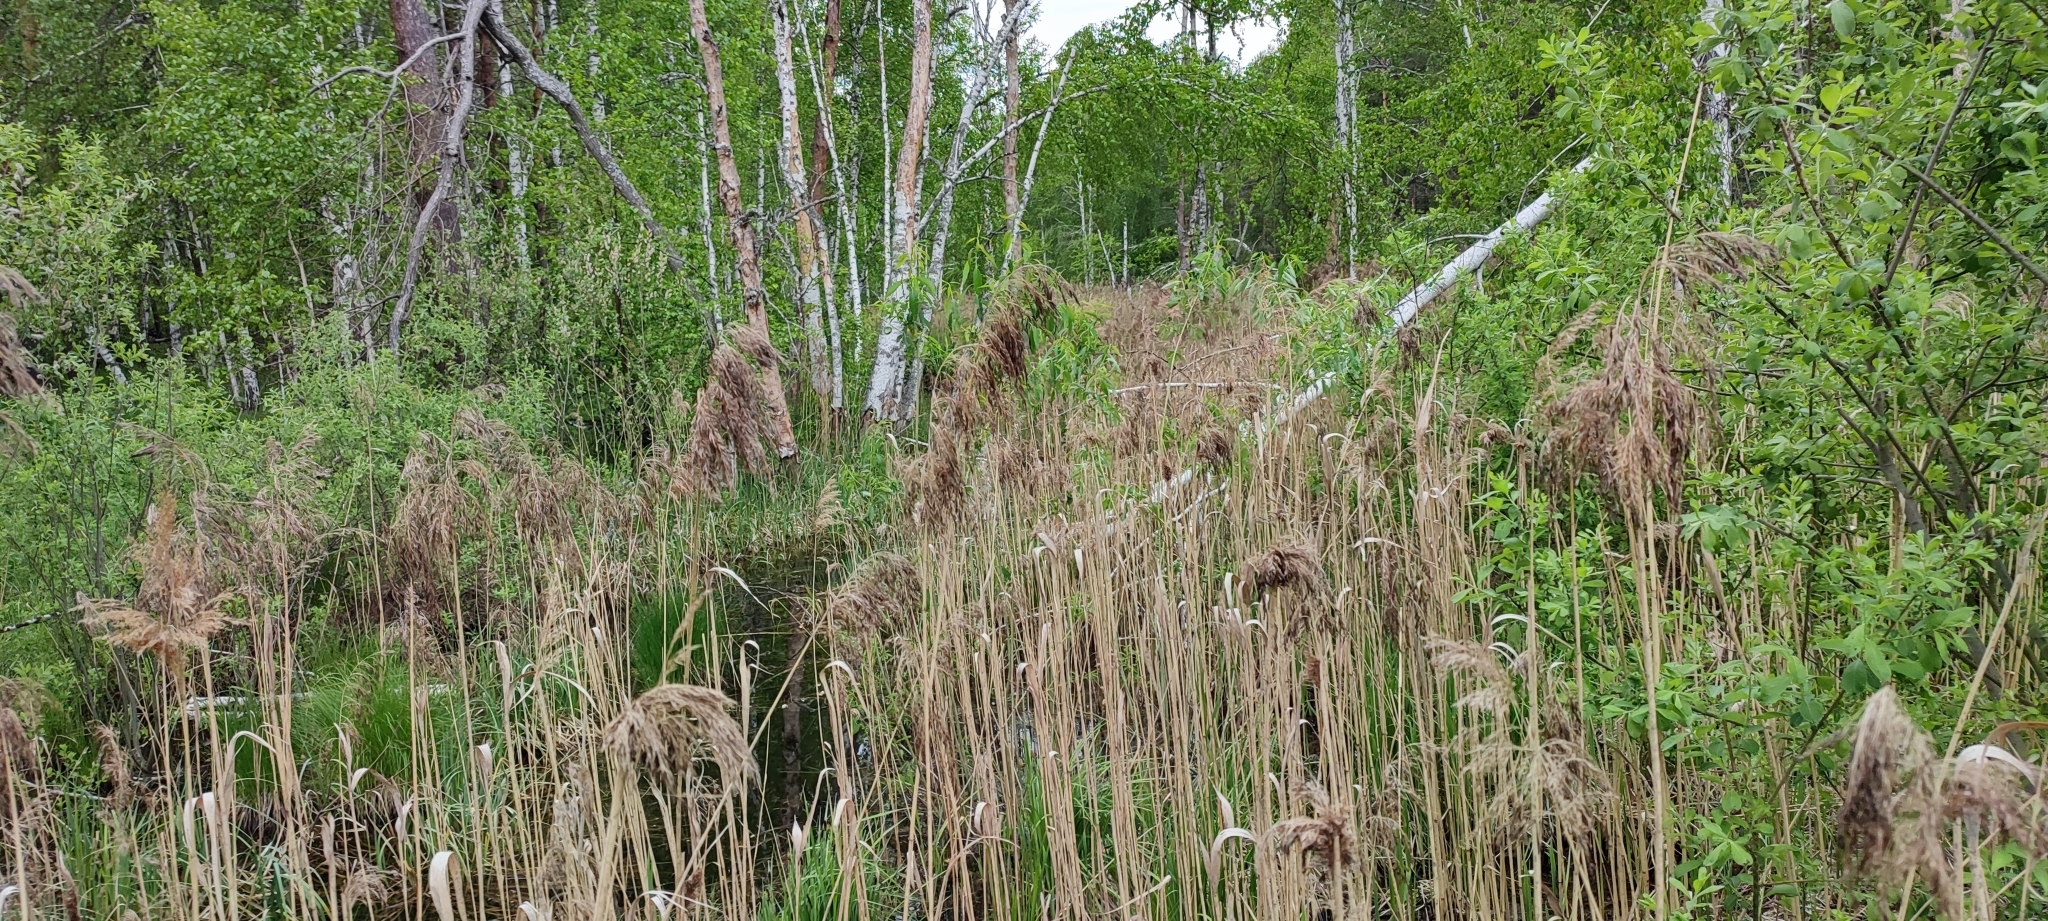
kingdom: Plantae
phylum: Tracheophyta
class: Liliopsida
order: Poales
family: Poaceae
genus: Phragmites
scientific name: Phragmites australis
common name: Common reed
